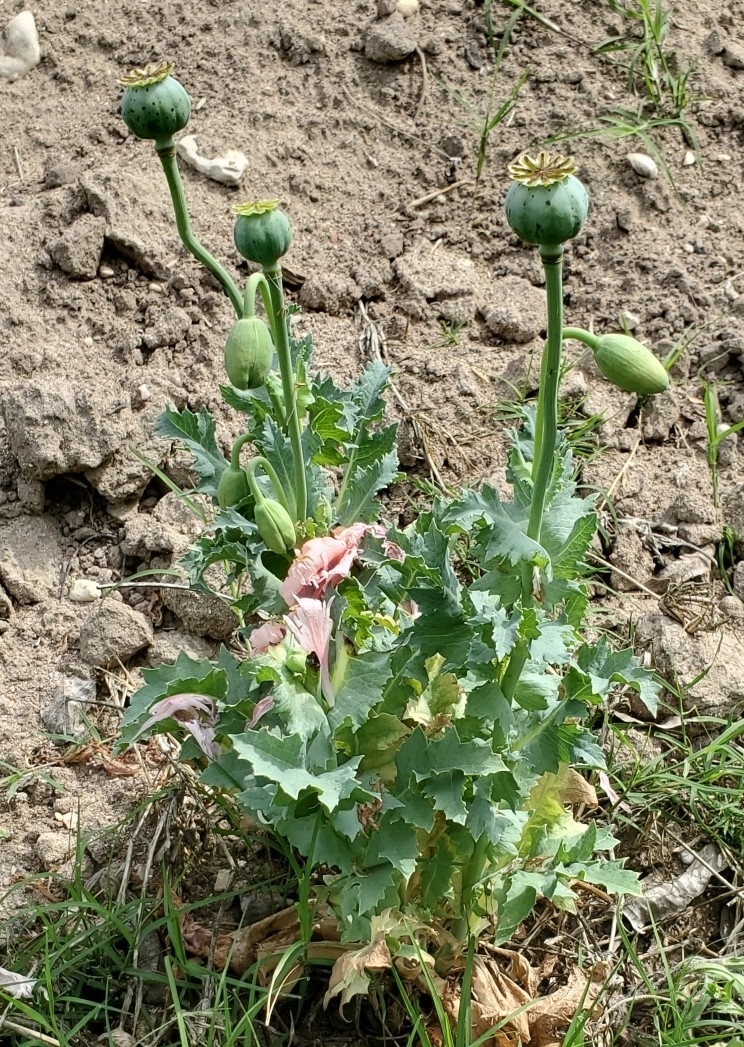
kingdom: Plantae
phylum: Tracheophyta
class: Magnoliopsida
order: Ranunculales
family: Papaveraceae
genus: Papaver
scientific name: Papaver somniferum
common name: Opium poppy
